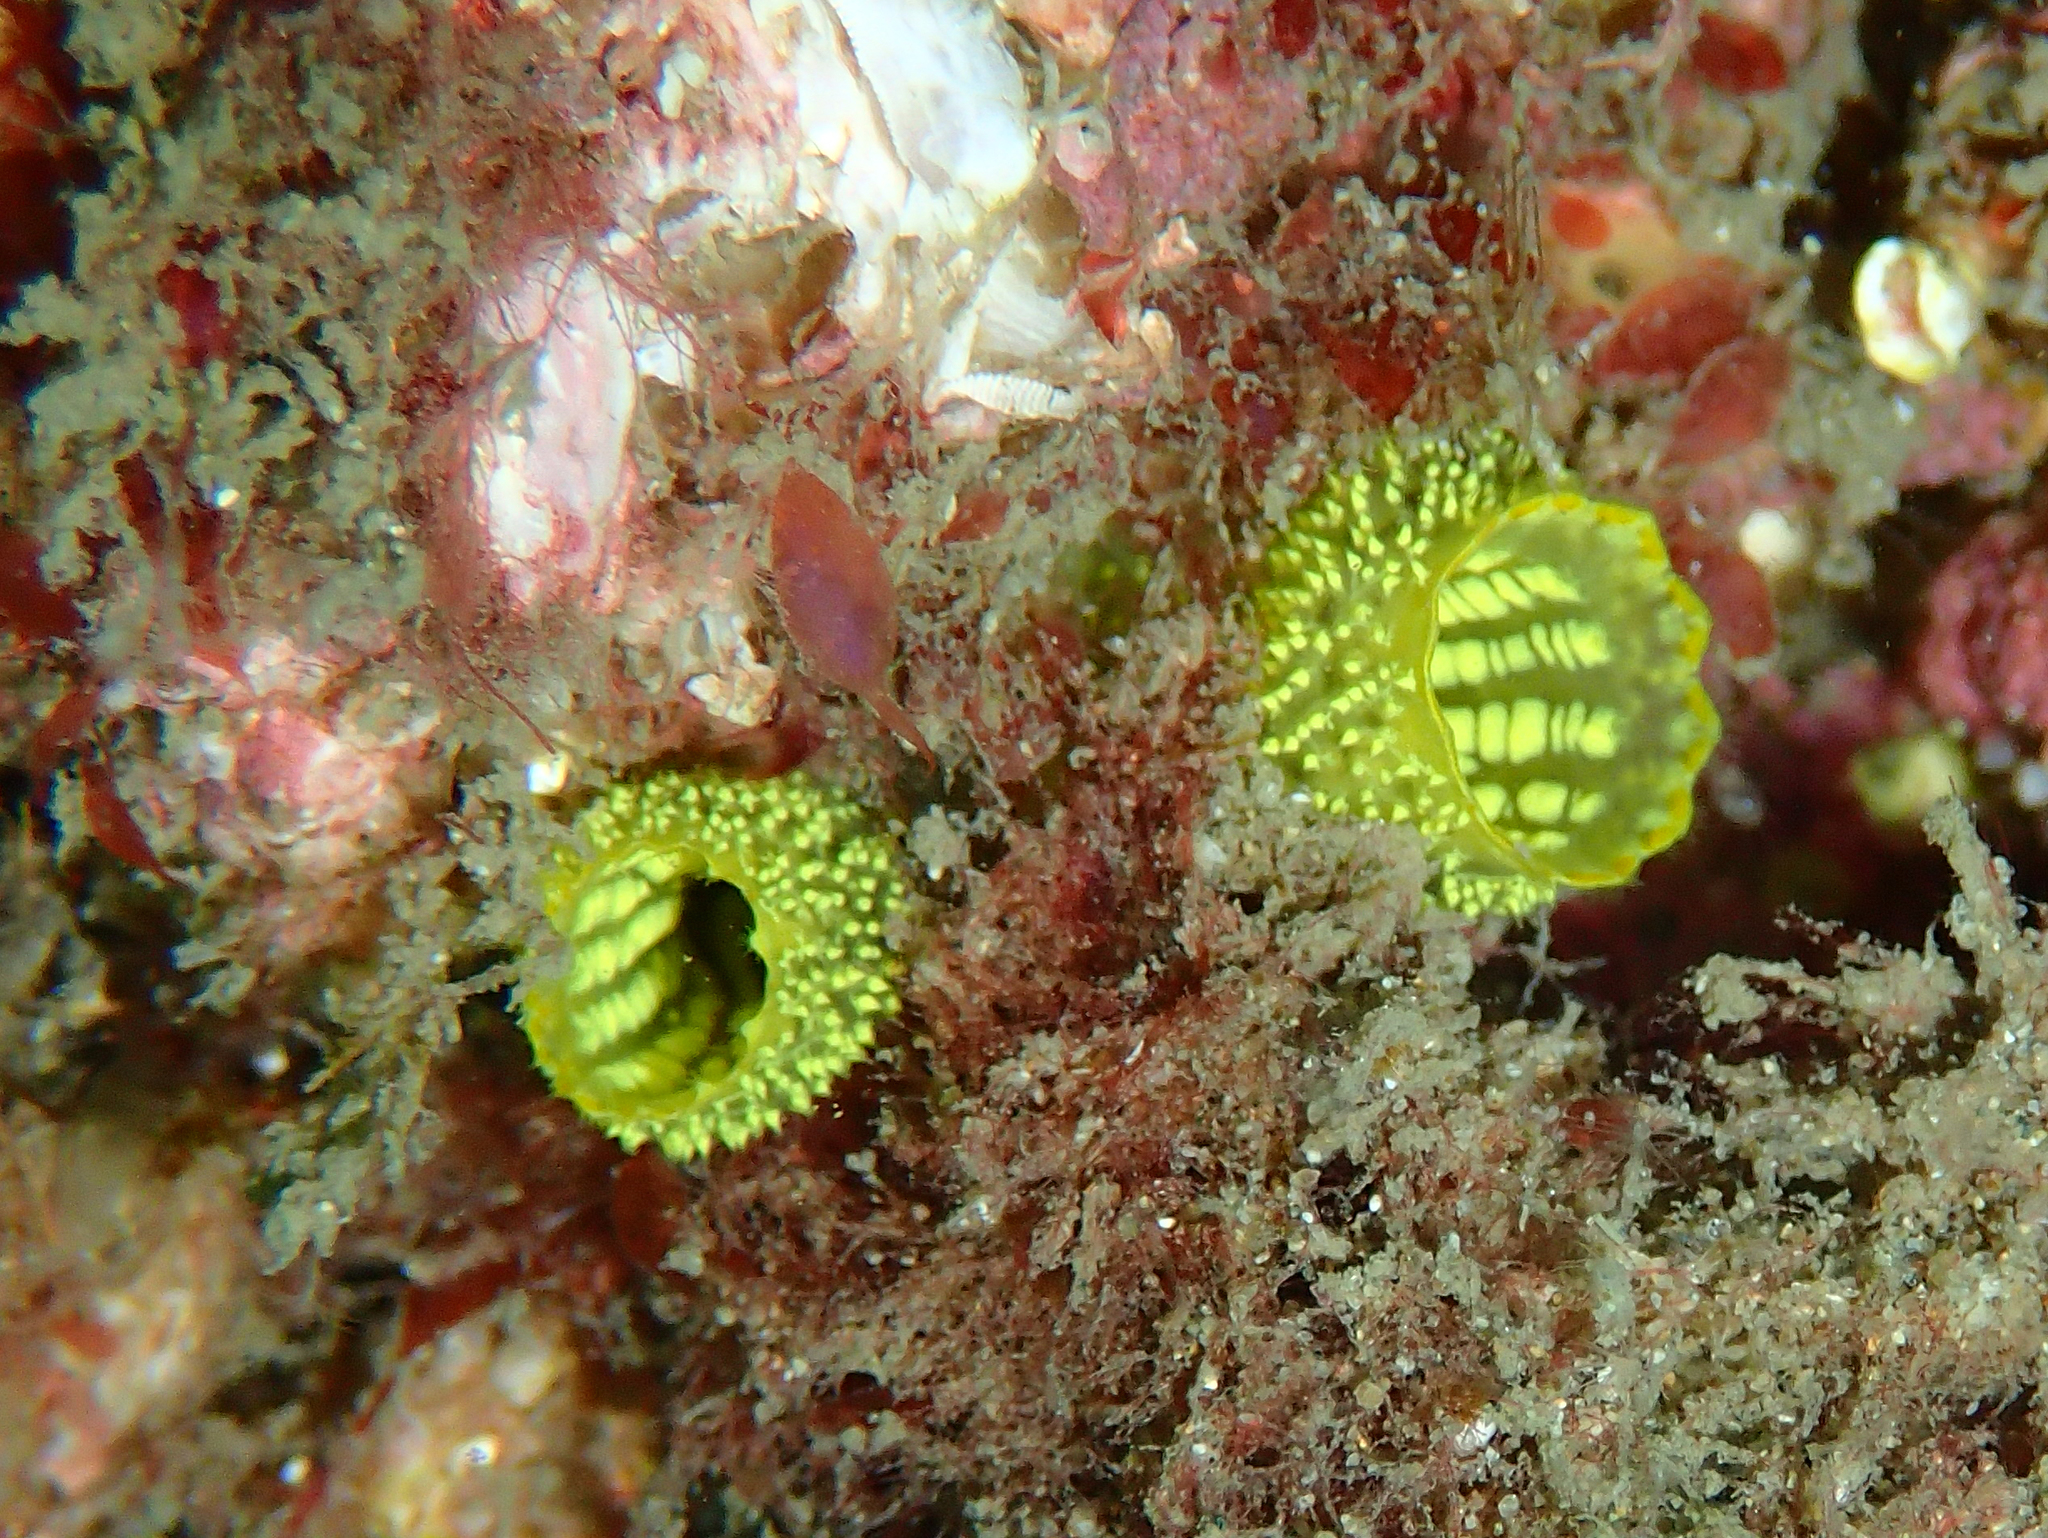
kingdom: Animalia
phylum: Chordata
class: Ascidiacea
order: Phlebobranchia
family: Ascidiidae
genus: Phallusia
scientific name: Phallusia julinea
